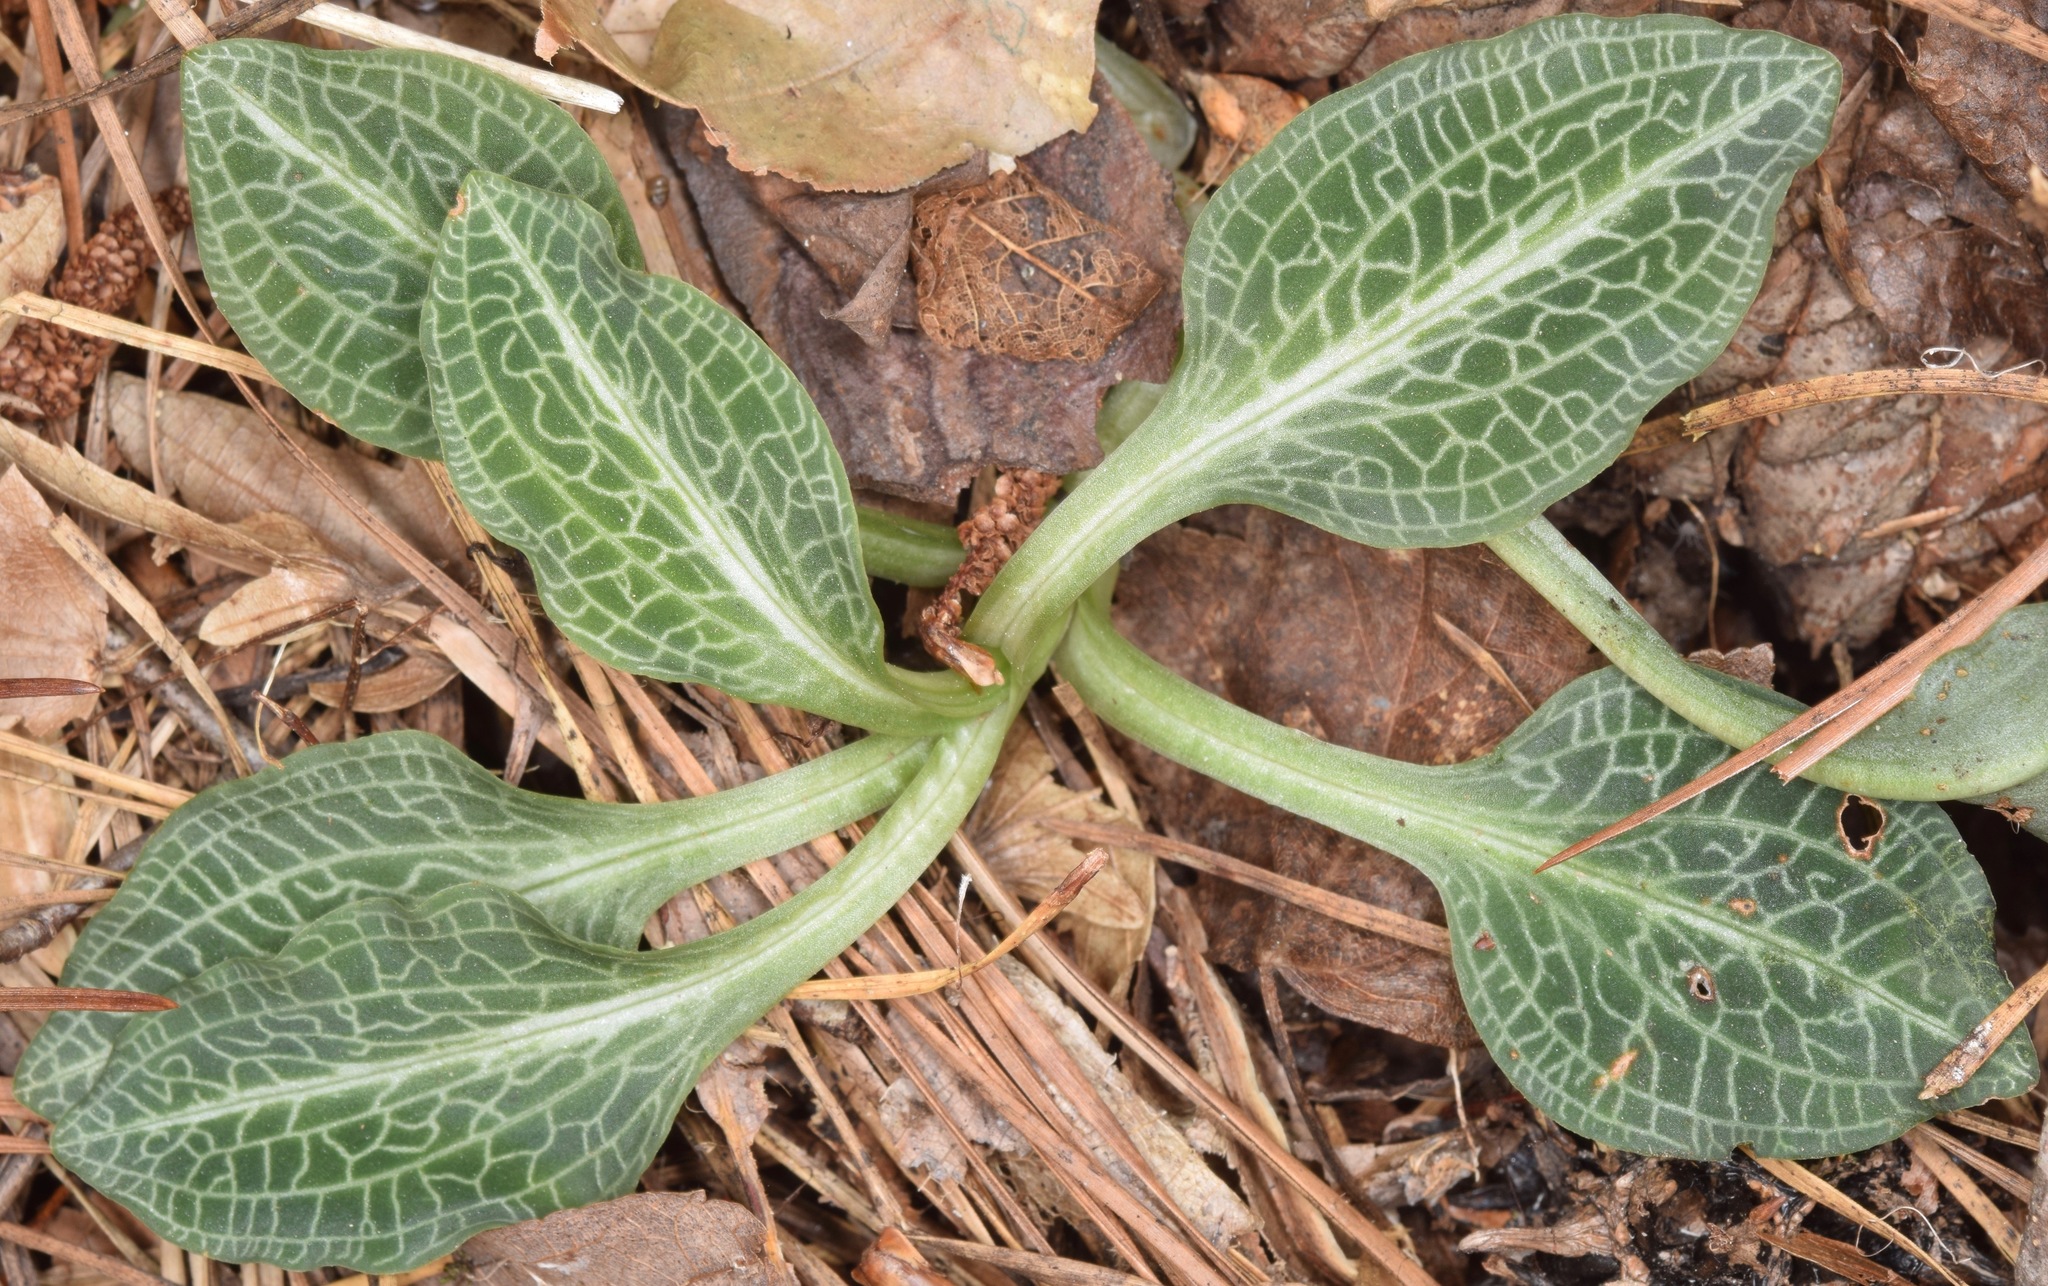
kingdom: Plantae
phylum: Tracheophyta
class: Liliopsida
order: Asparagales
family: Orchidaceae
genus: Goodyera
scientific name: Goodyera pubescens
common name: Downy rattlesnake-plantain
